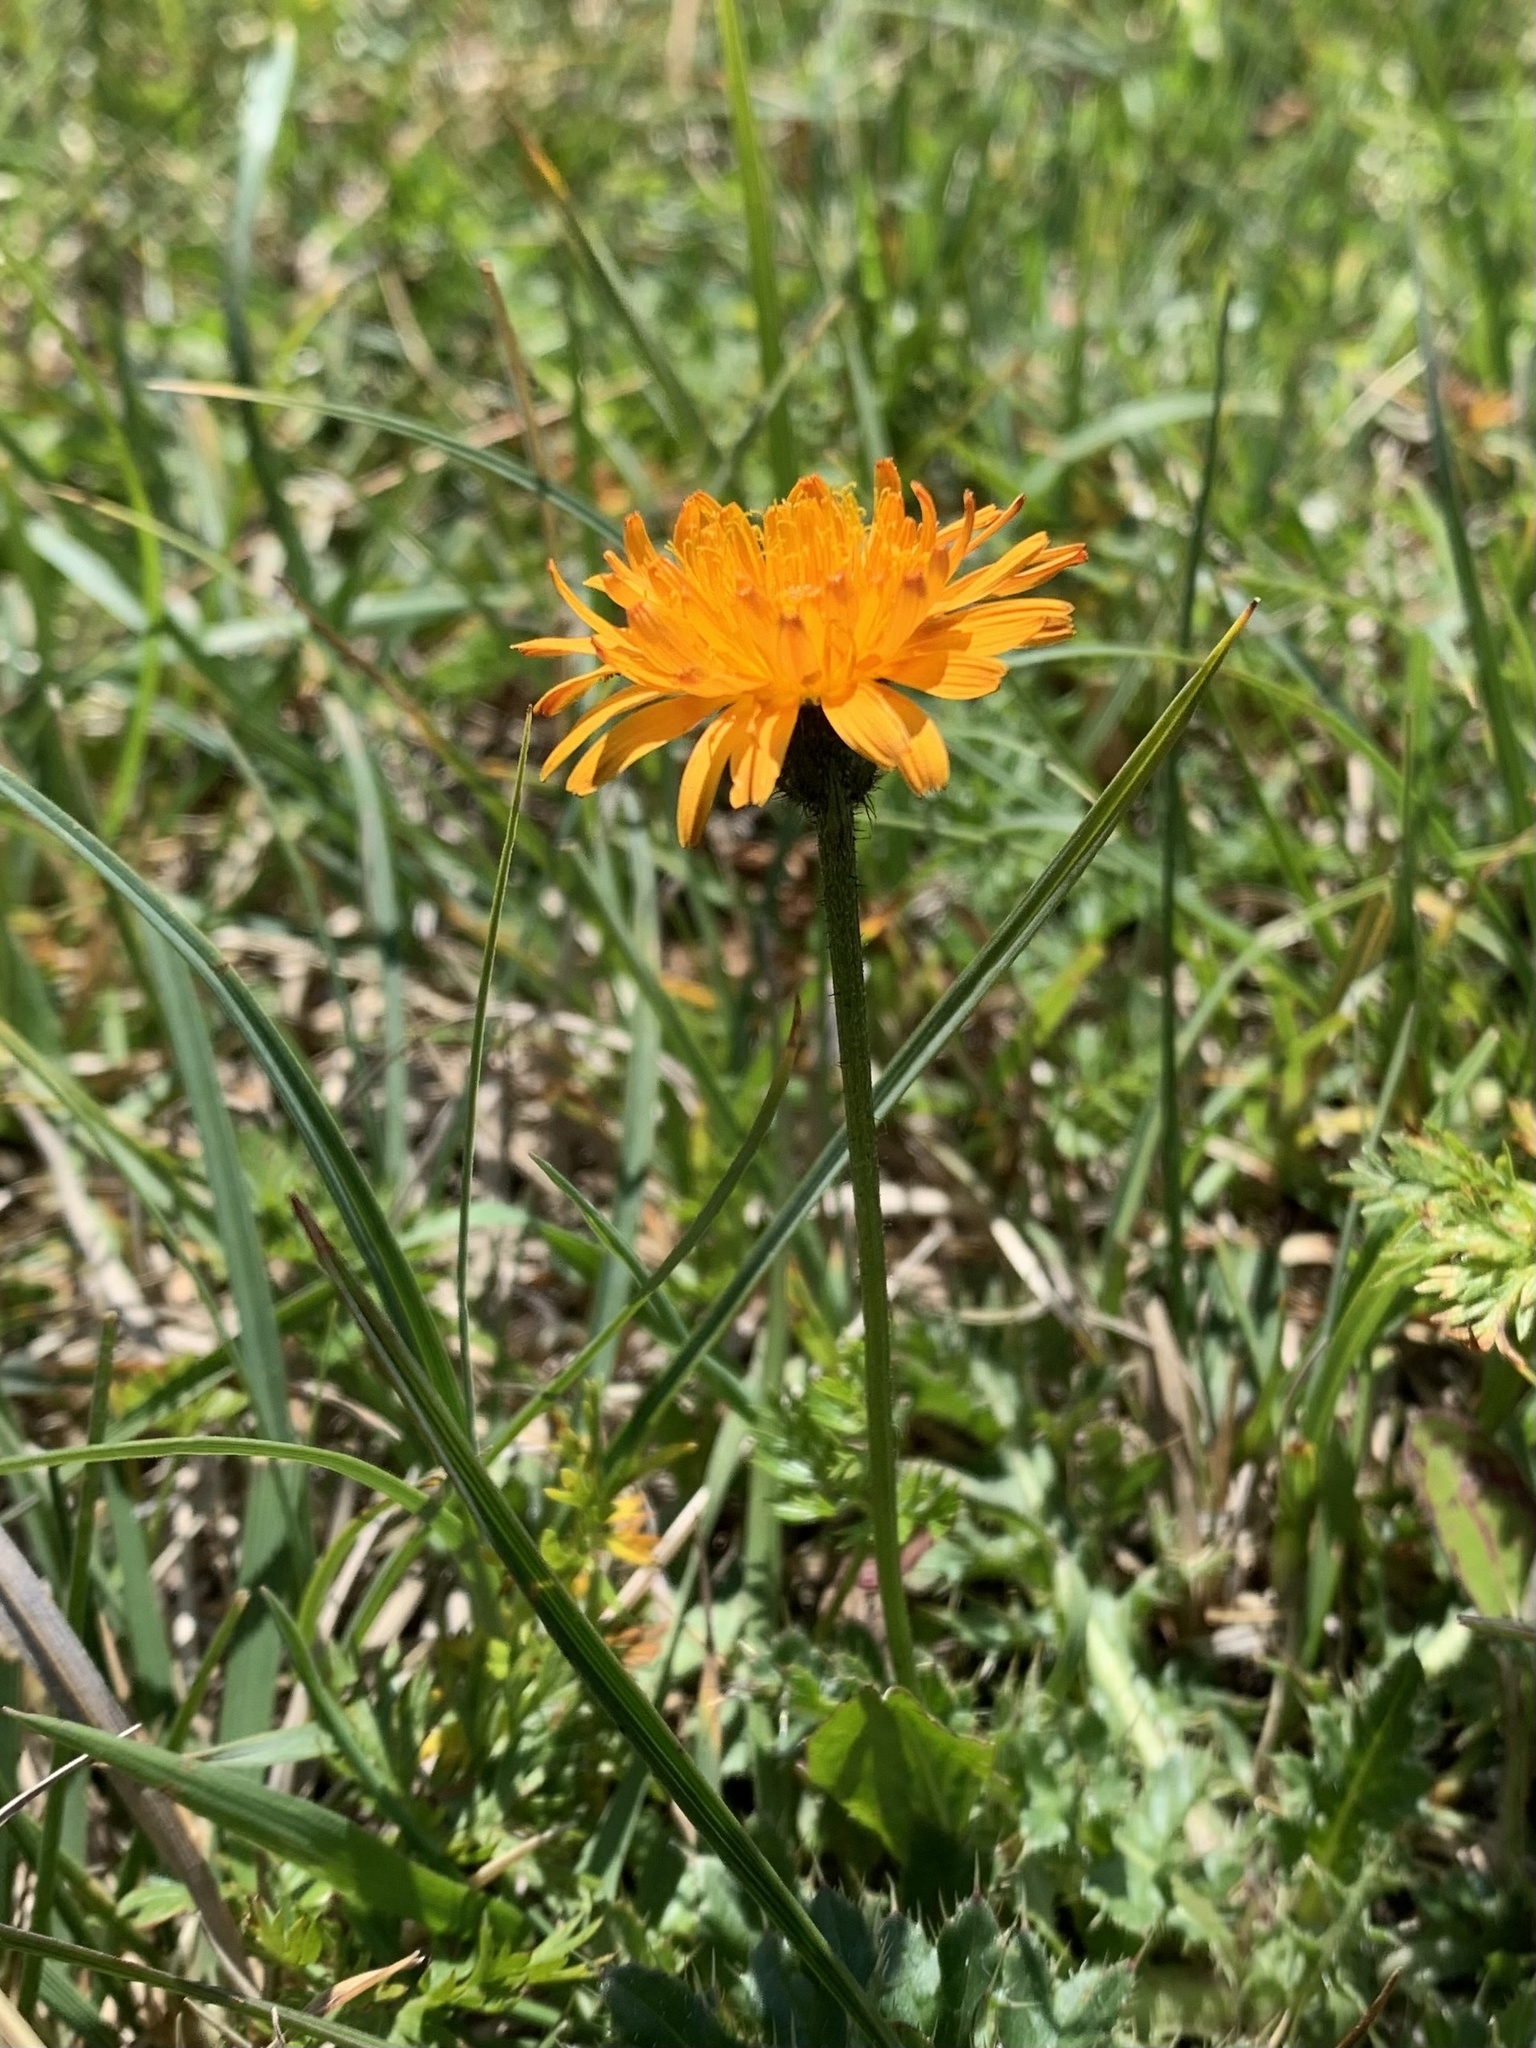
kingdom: Plantae
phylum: Tracheophyta
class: Magnoliopsida
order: Asterales
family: Asteraceae
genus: Crepis
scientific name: Crepis aurea
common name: Golden hawk's-beard
